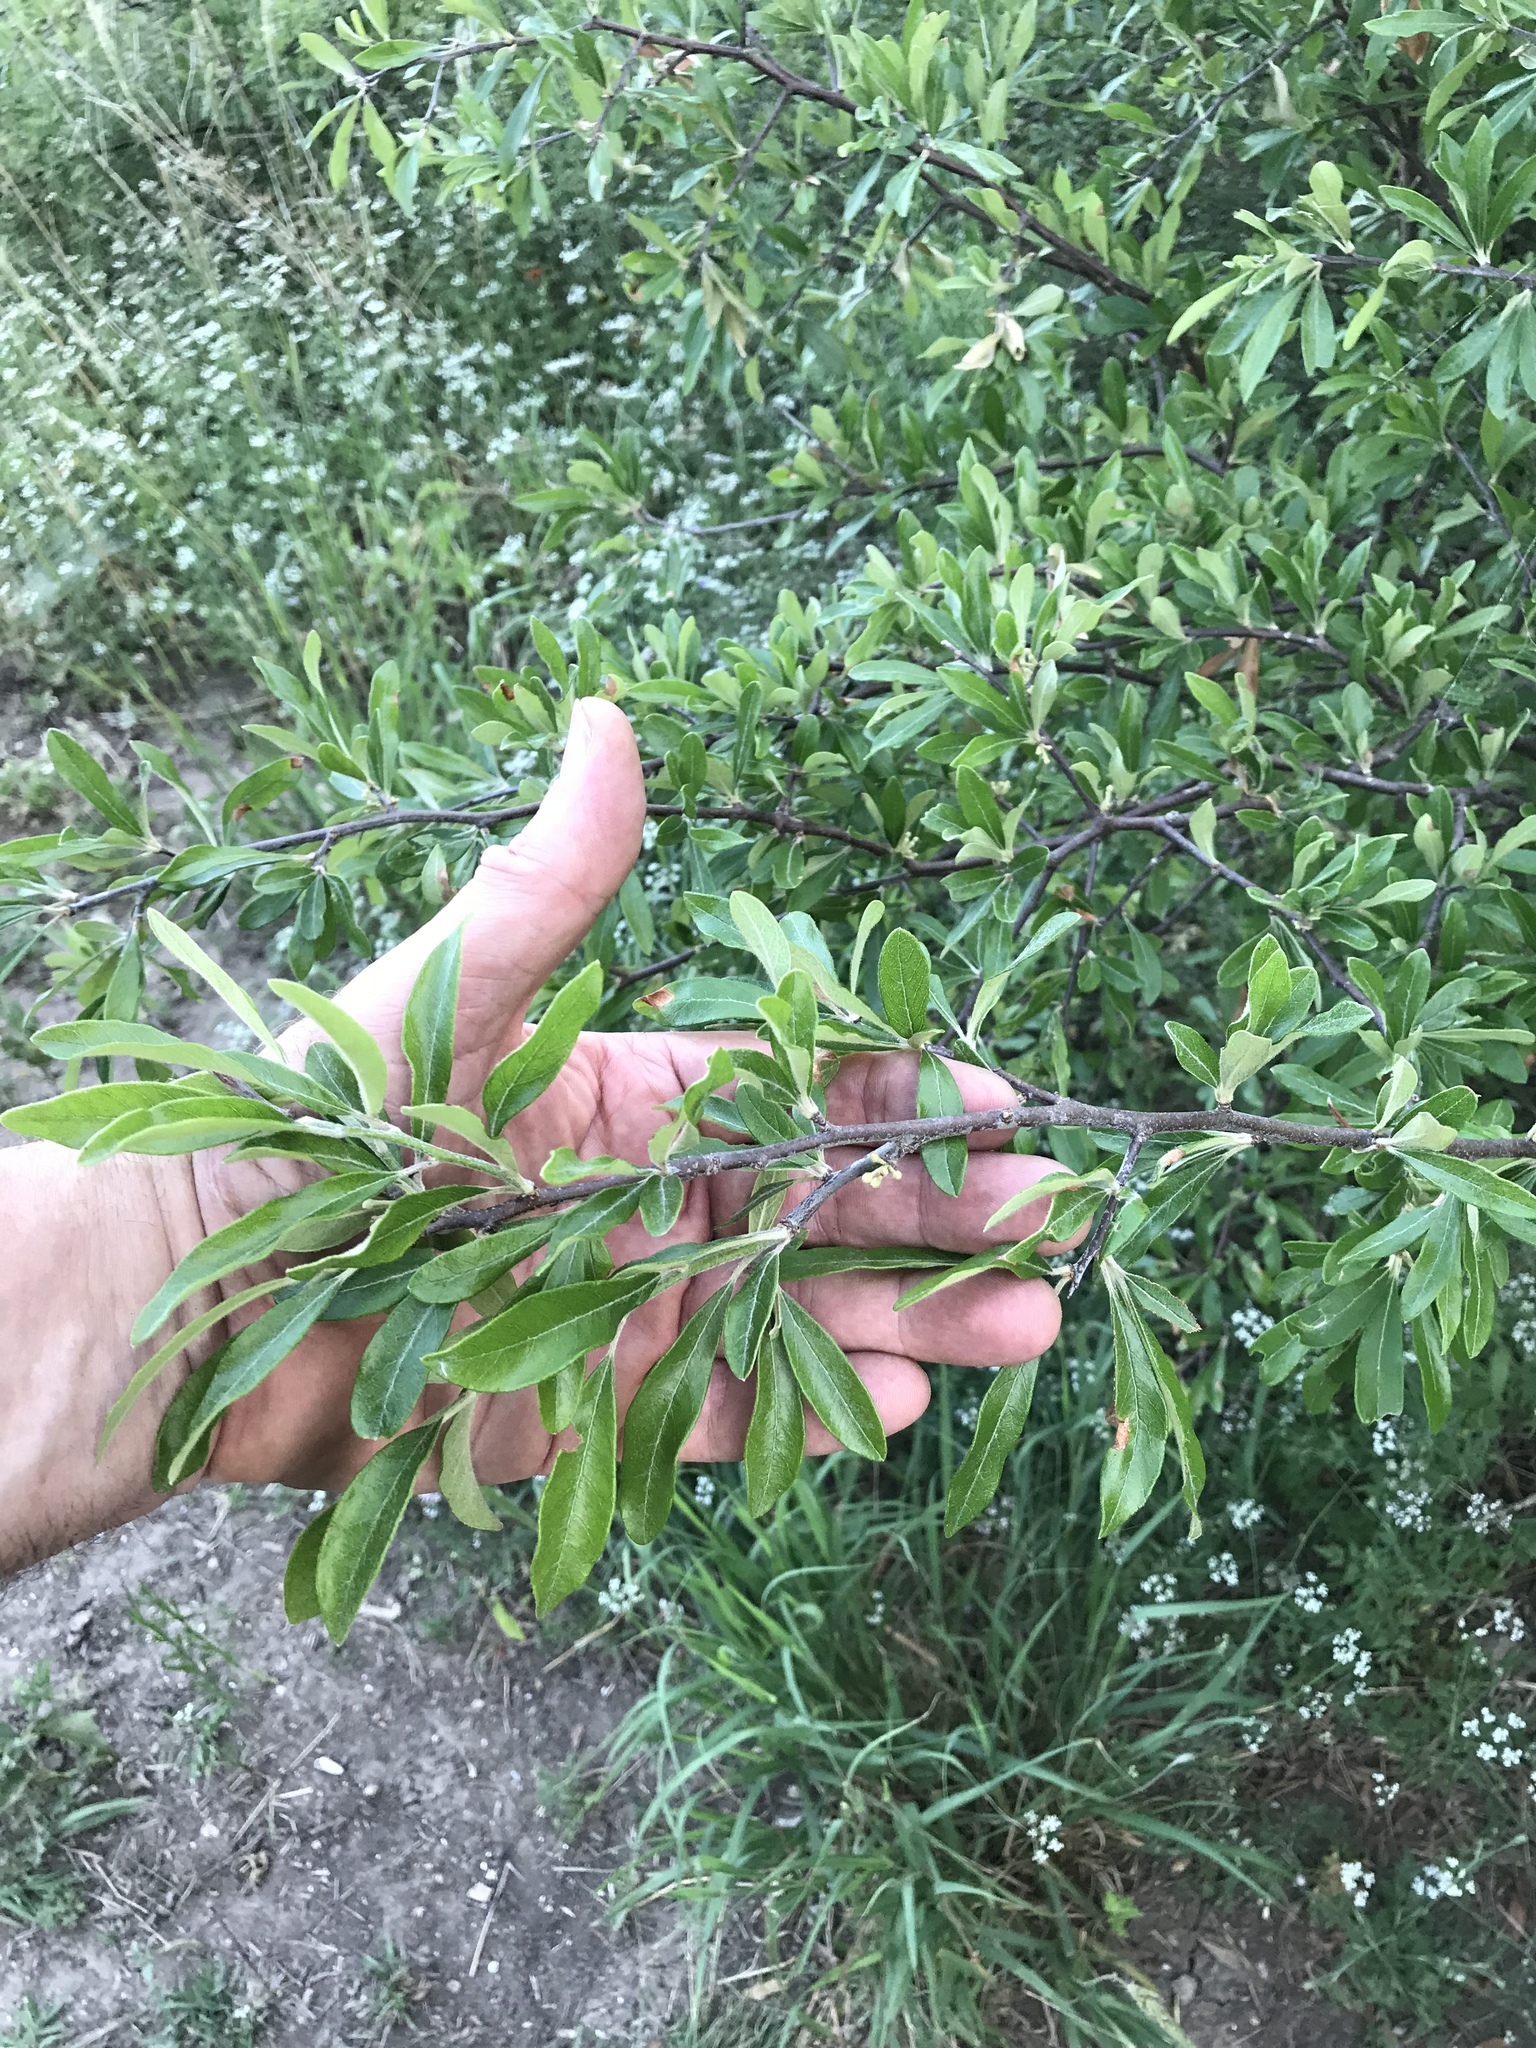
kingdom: Plantae
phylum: Tracheophyta
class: Magnoliopsida
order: Ericales
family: Sapotaceae
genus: Sideroxylon
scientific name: Sideroxylon lanuginosum
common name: Chittamwood
